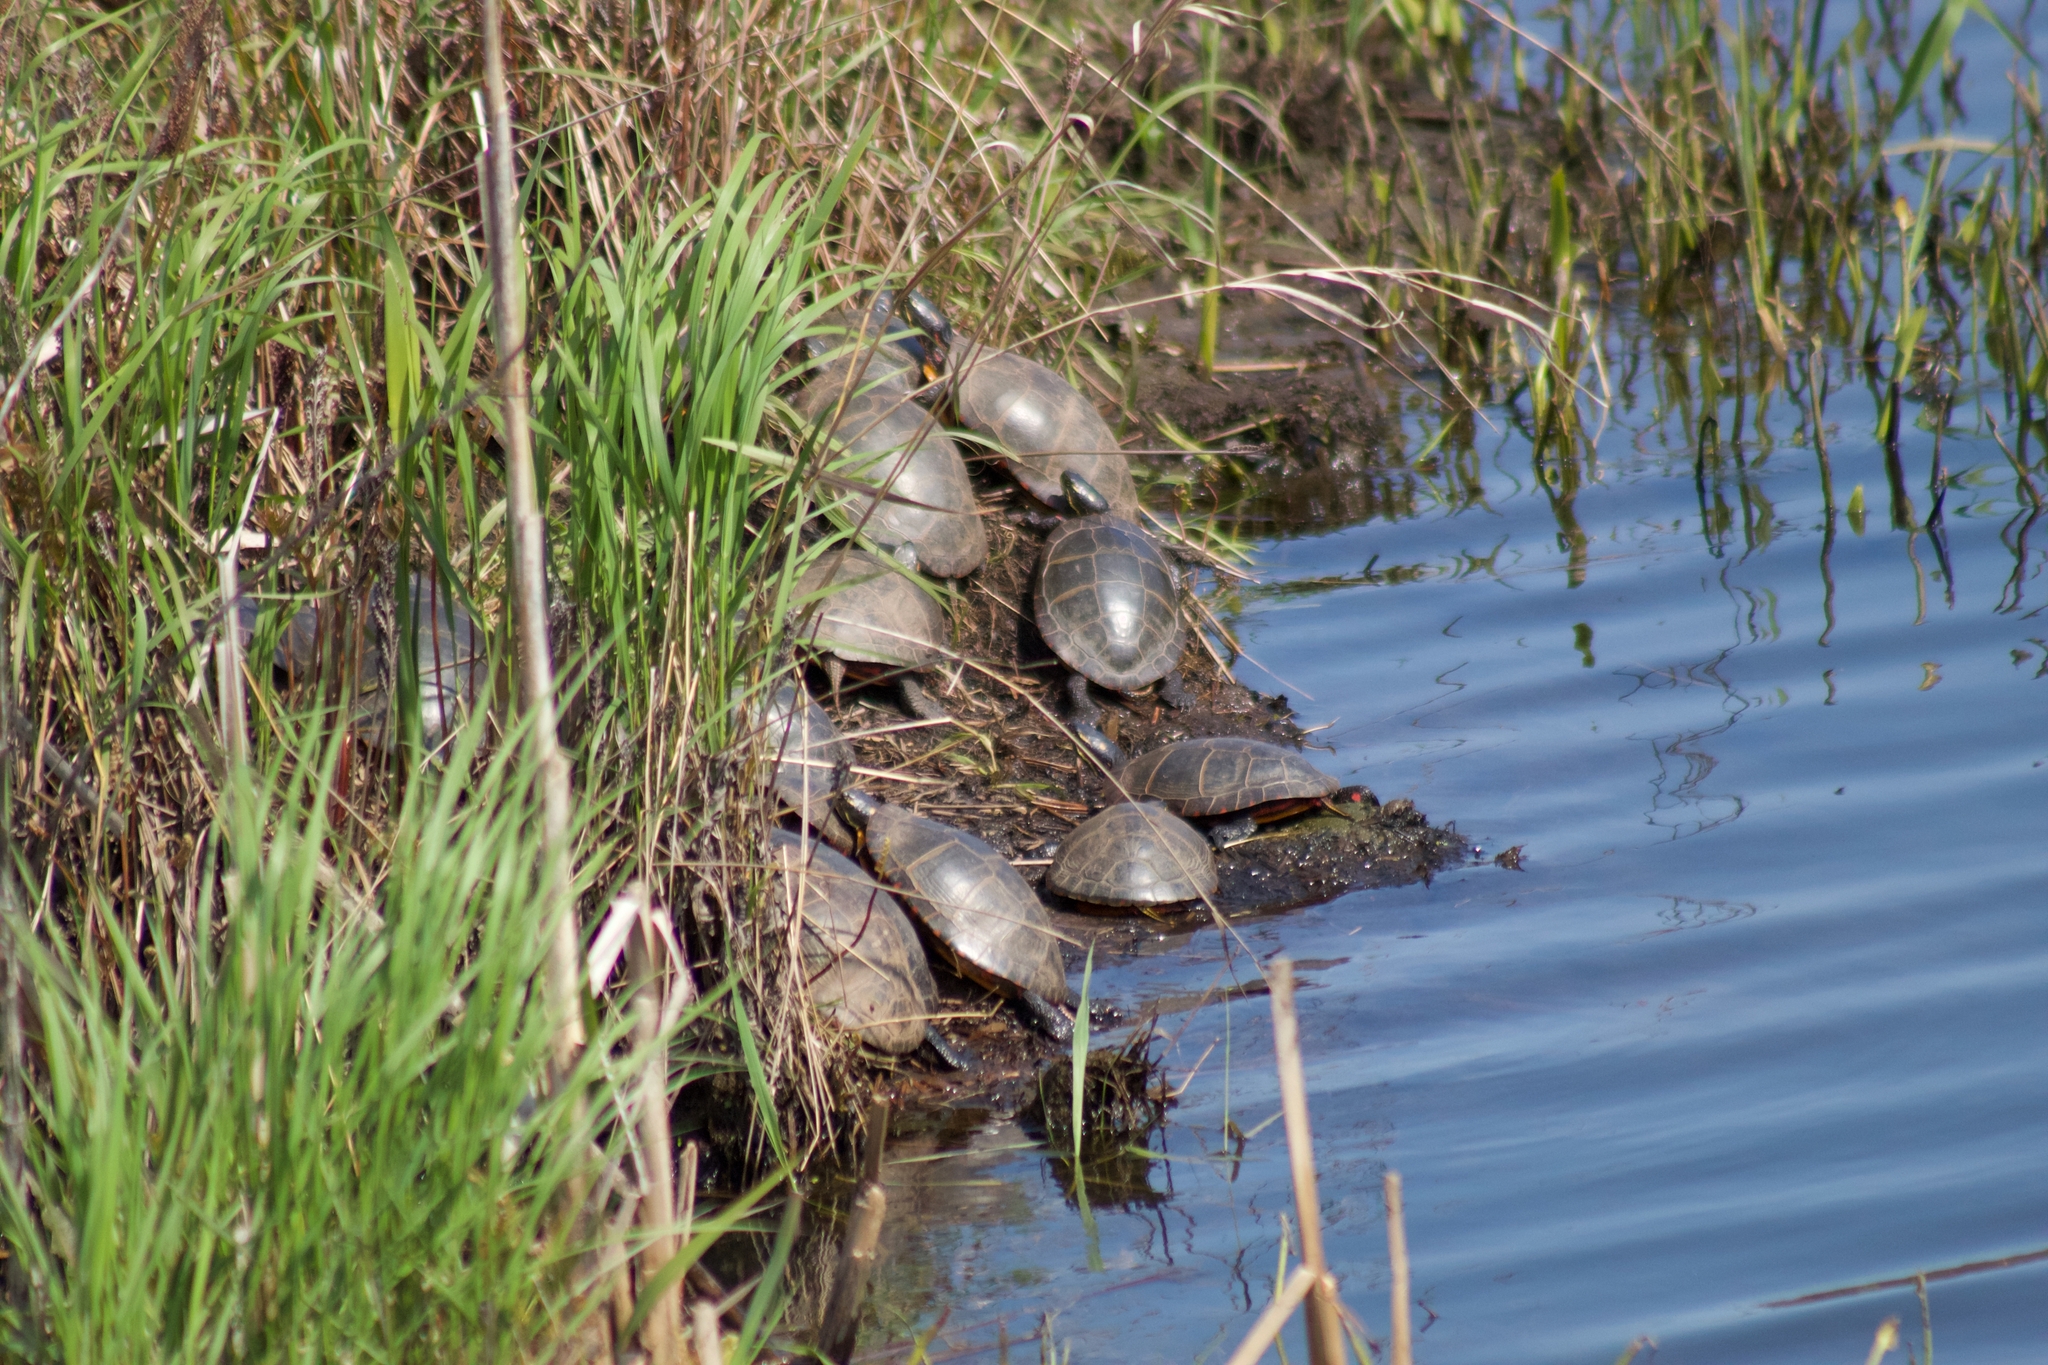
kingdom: Animalia
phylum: Chordata
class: Testudines
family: Emydidae
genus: Chrysemys
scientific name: Chrysemys picta
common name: Painted turtle
